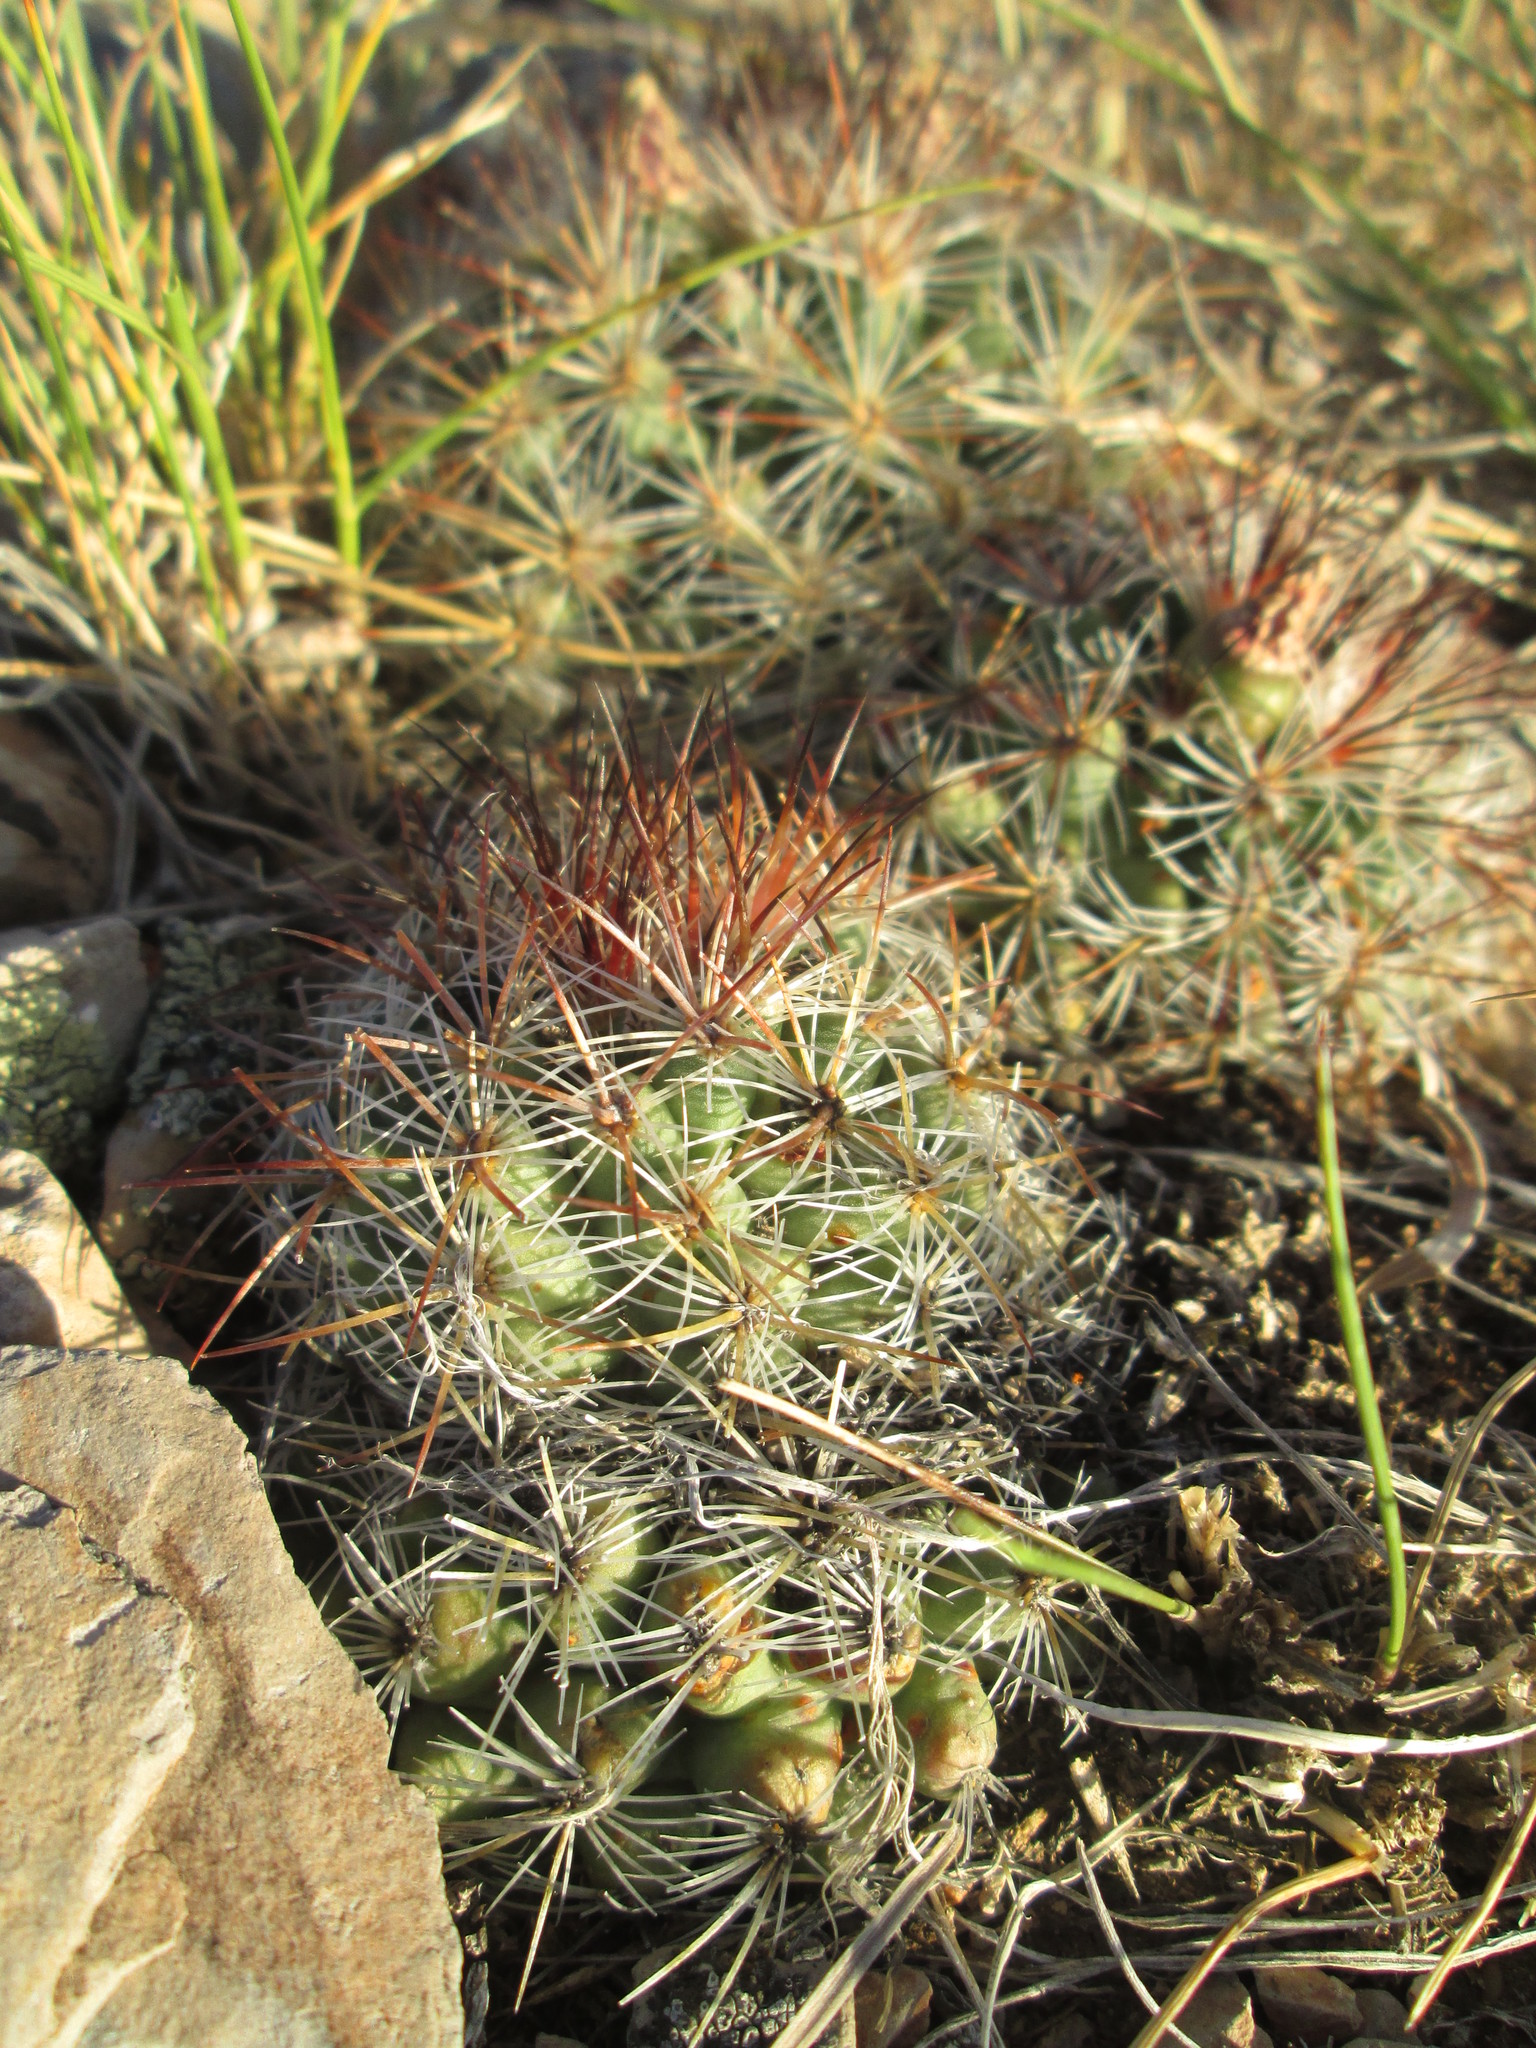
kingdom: Plantae
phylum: Tracheophyta
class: Magnoliopsida
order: Caryophyllales
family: Cactaceae
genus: Pediocactus
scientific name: Pediocactus simpsonii
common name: Simpson's hedgehog cactus
